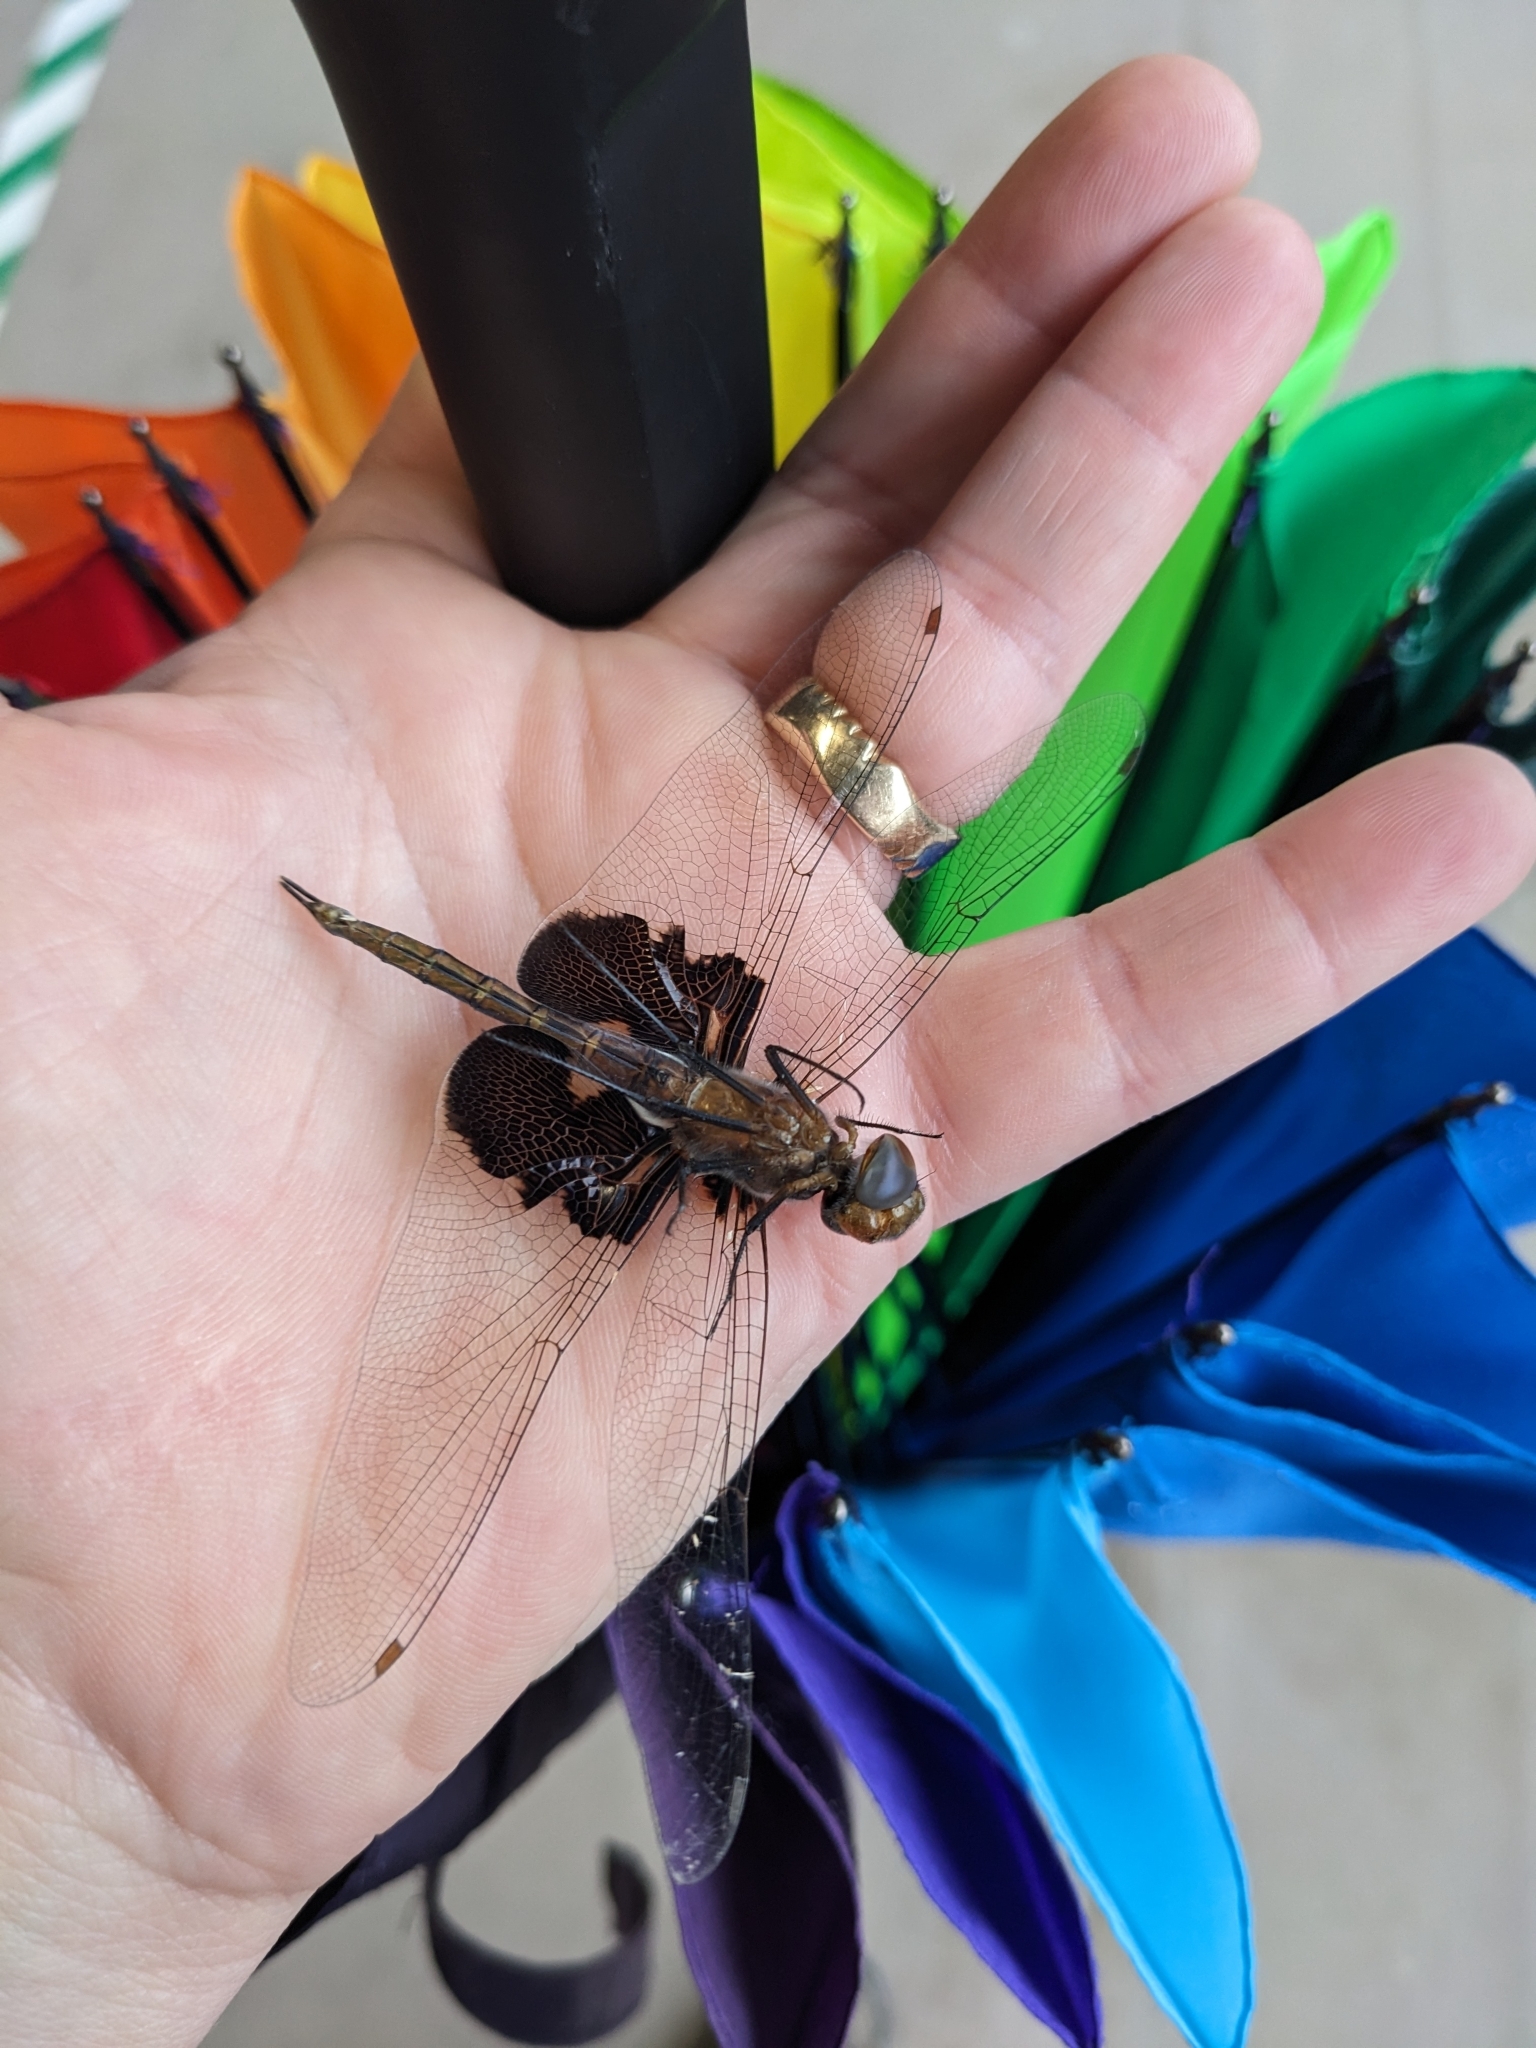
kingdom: Animalia
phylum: Arthropoda
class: Insecta
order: Odonata
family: Libellulidae
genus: Tramea
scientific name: Tramea lacerata
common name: Black saddlebags
